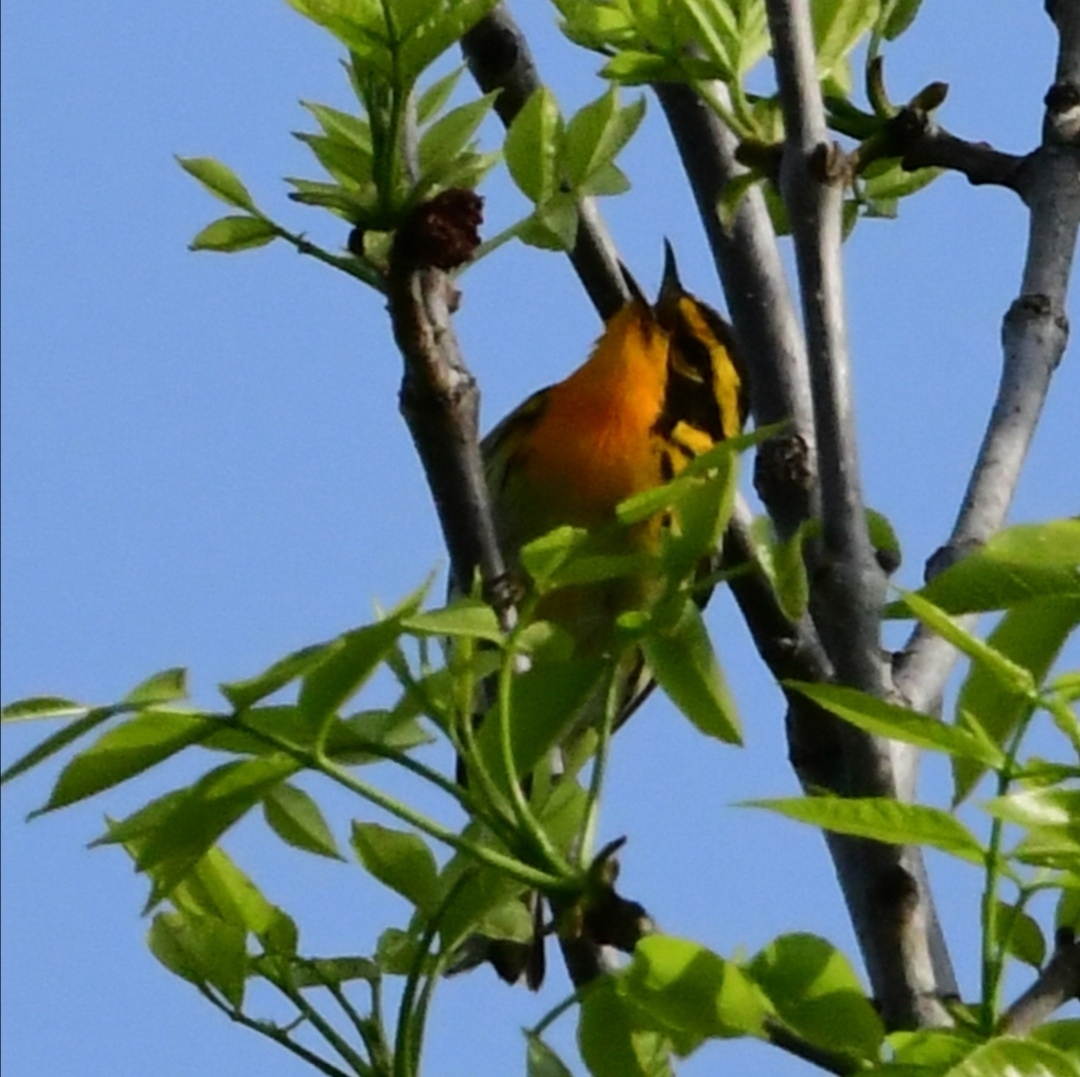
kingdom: Animalia
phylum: Chordata
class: Aves
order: Passeriformes
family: Parulidae
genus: Setophaga
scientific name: Setophaga fusca
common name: Blackburnian warbler
